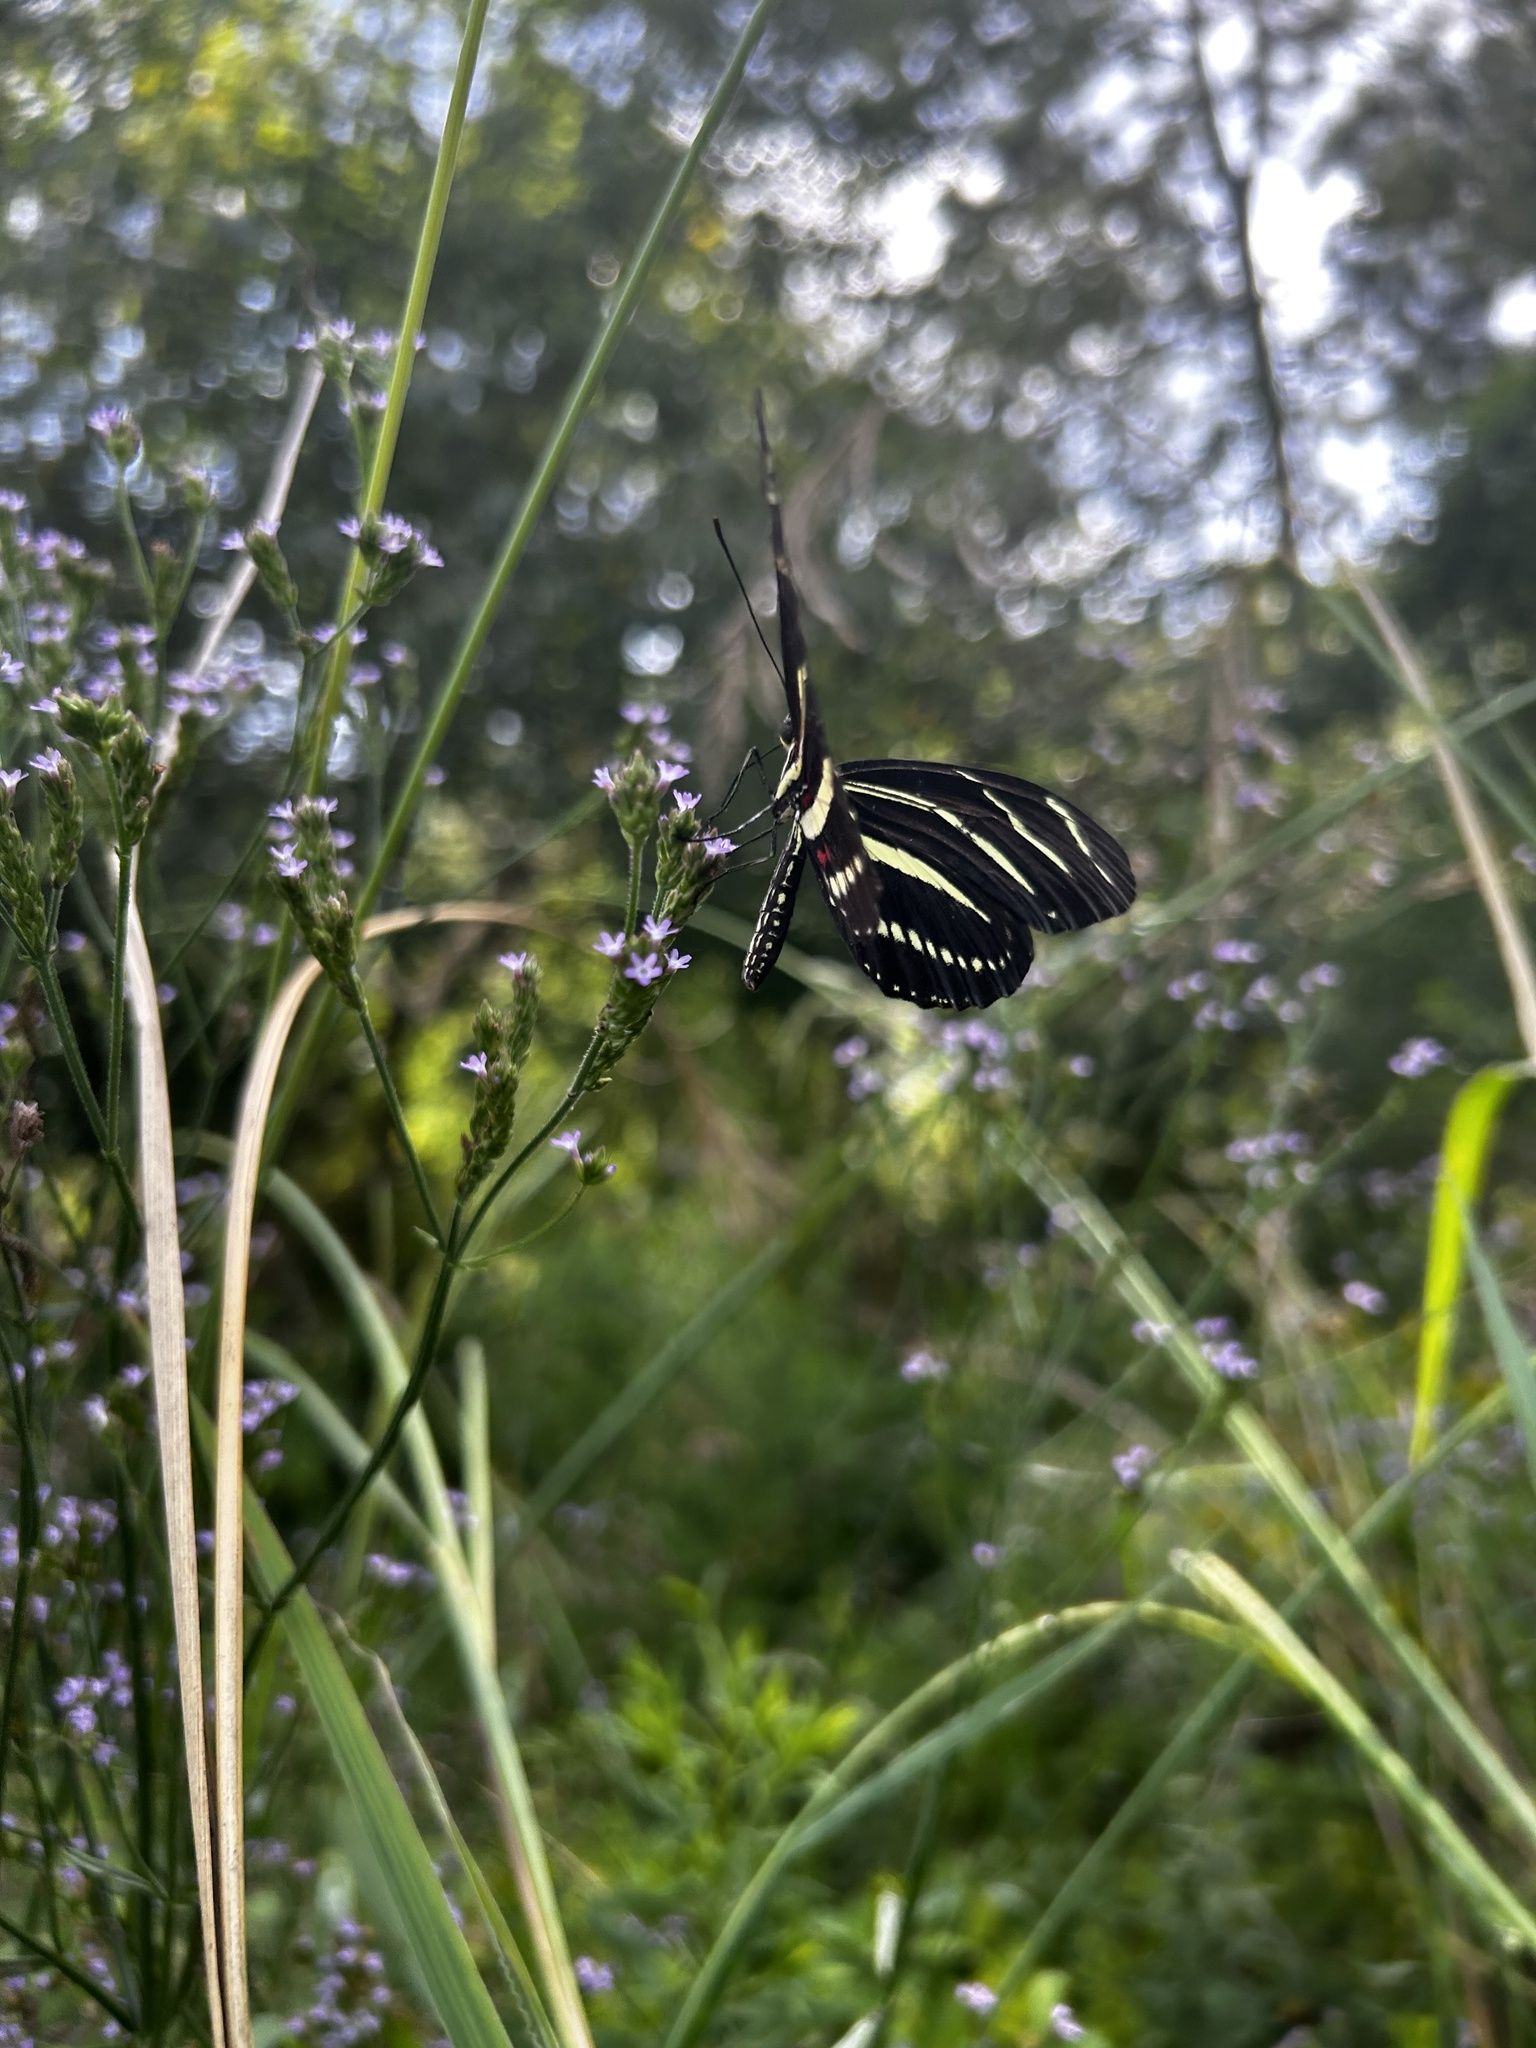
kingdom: Animalia
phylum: Arthropoda
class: Insecta
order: Lepidoptera
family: Nymphalidae
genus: Heliconius
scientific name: Heliconius charithonia
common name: Zebra long wing
